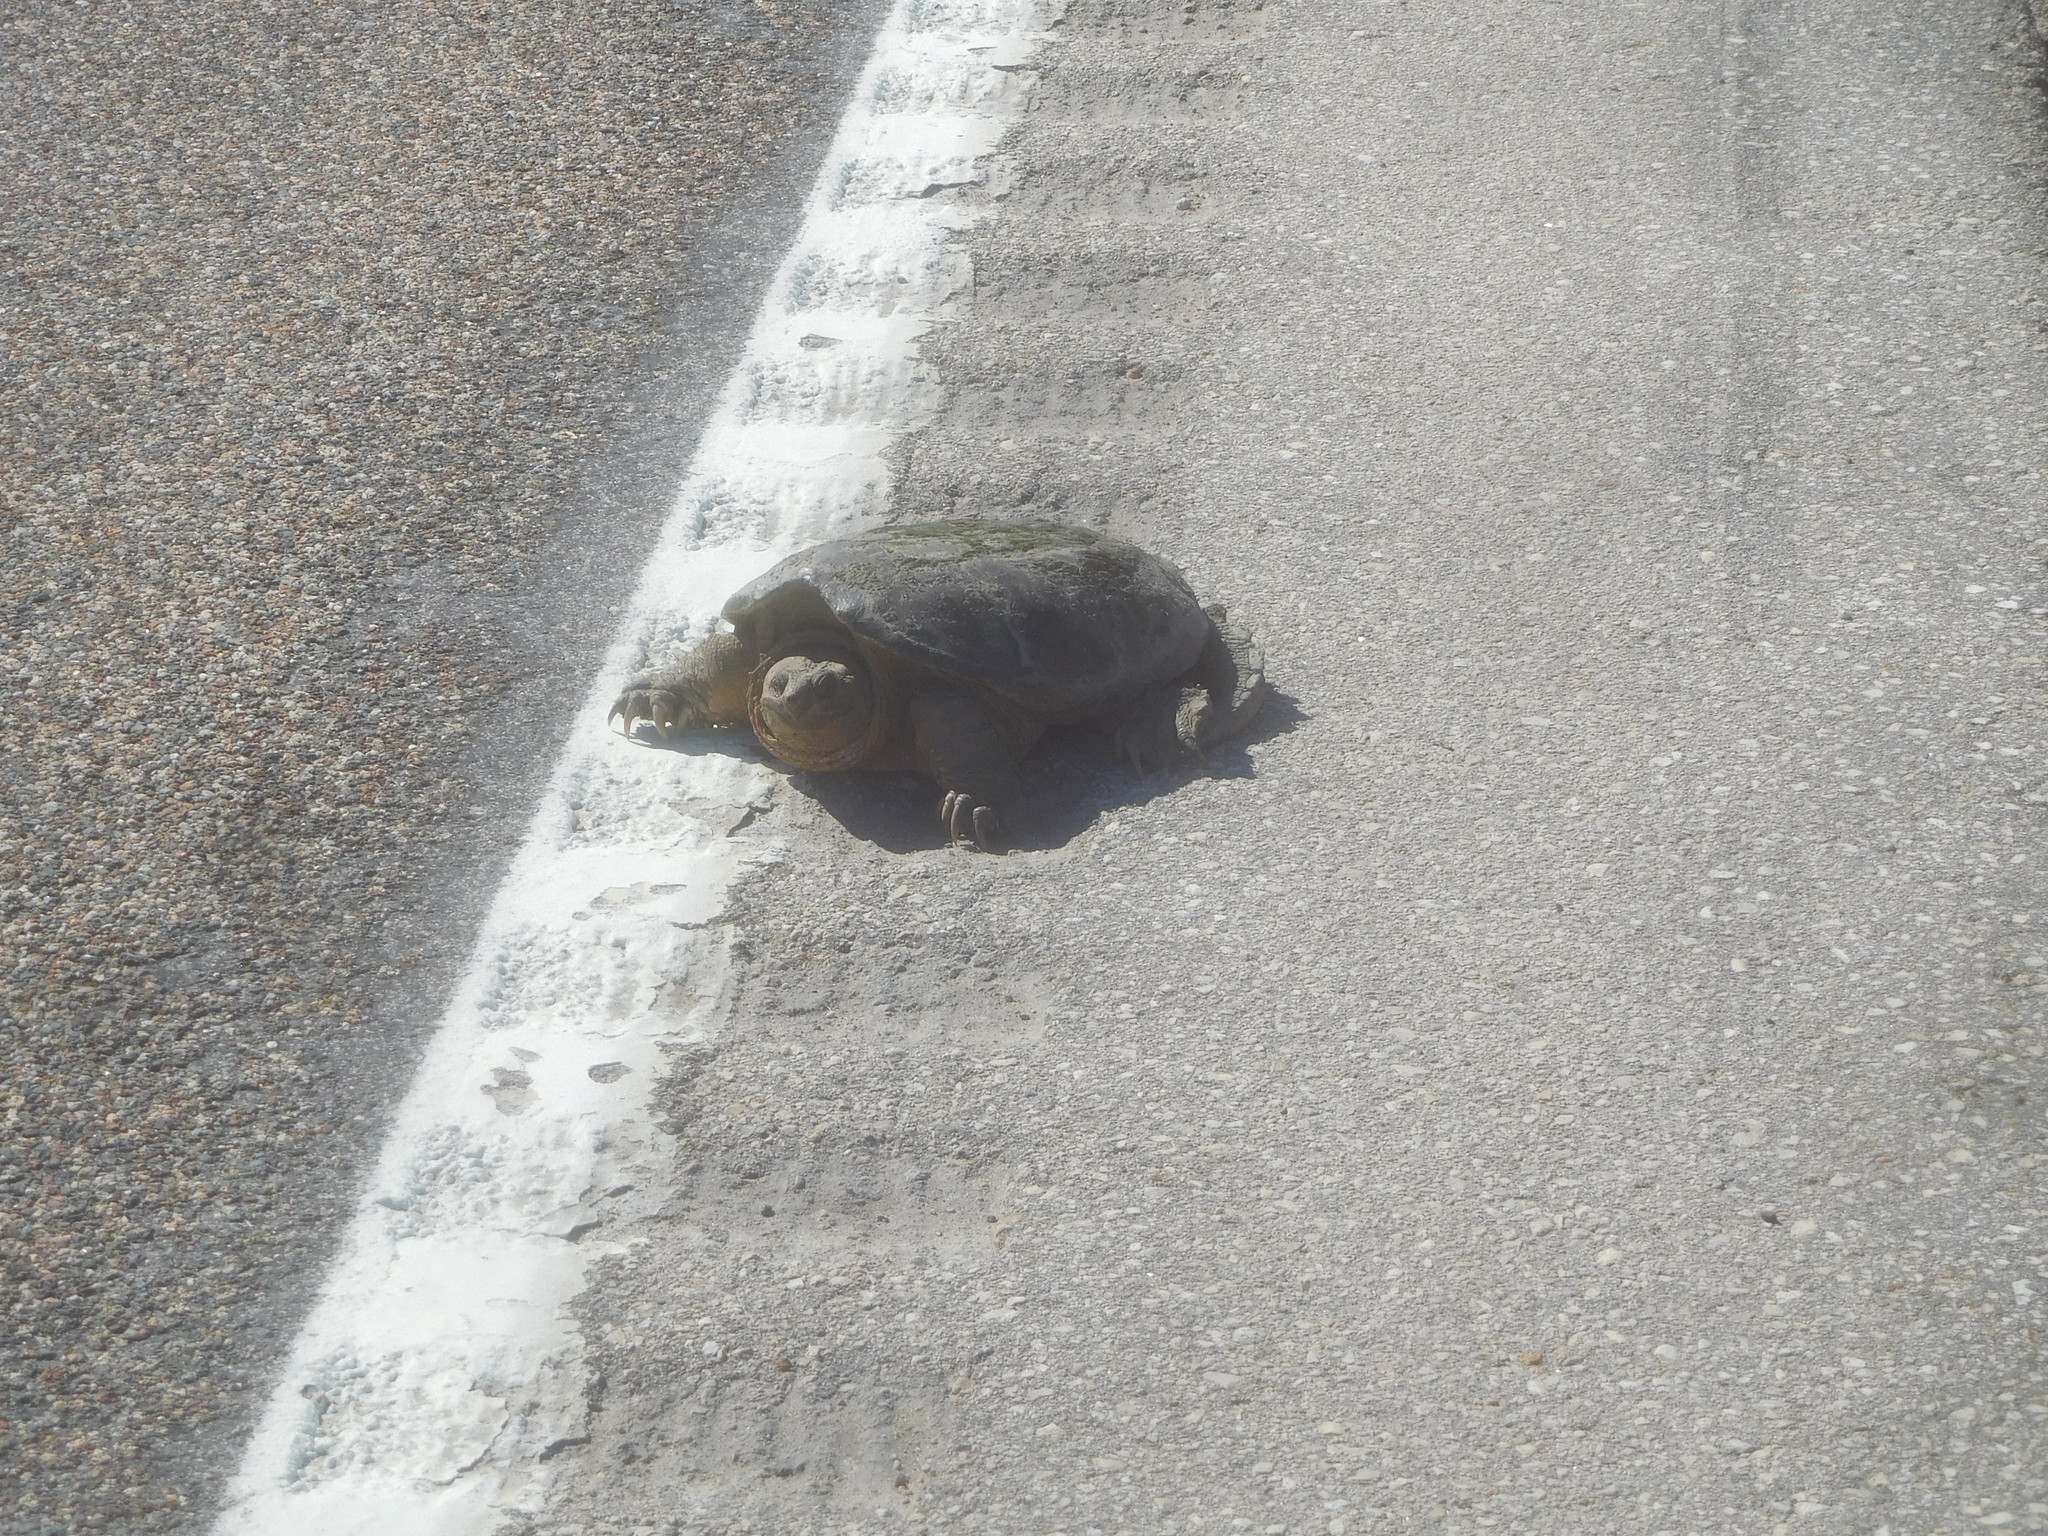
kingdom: Animalia
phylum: Chordata
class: Testudines
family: Chelydridae
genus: Chelydra
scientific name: Chelydra serpentina
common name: Common snapping turtle
